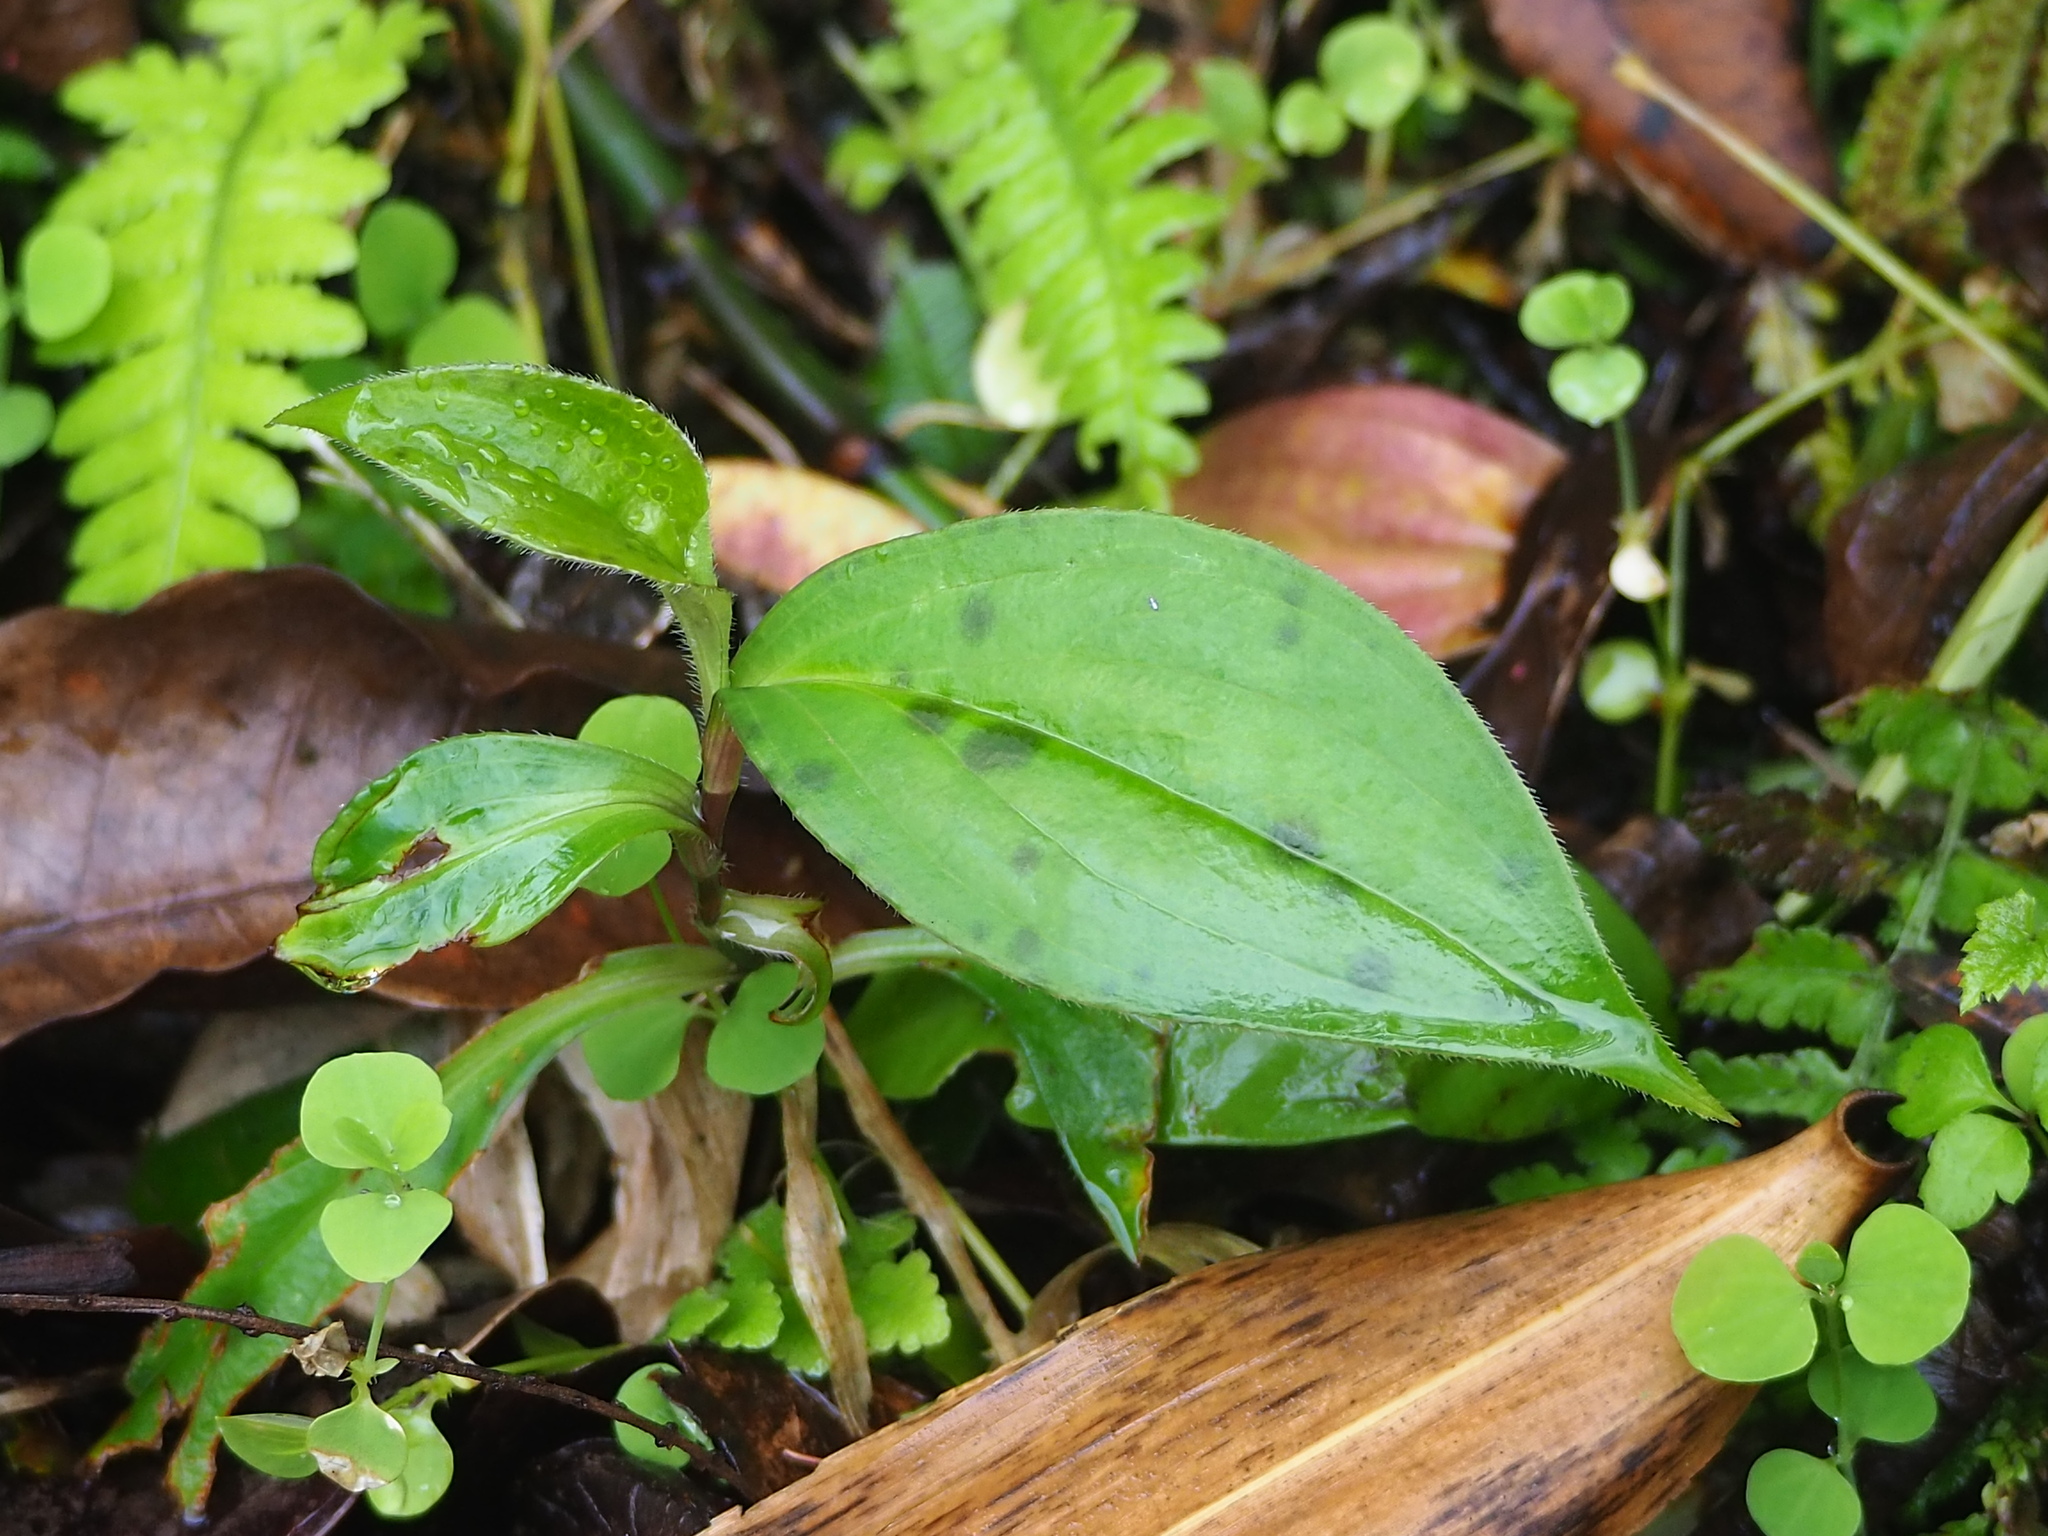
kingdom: Plantae
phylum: Tracheophyta
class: Liliopsida
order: Liliales
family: Liliaceae
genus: Tricyrtis
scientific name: Tricyrtis formosana
